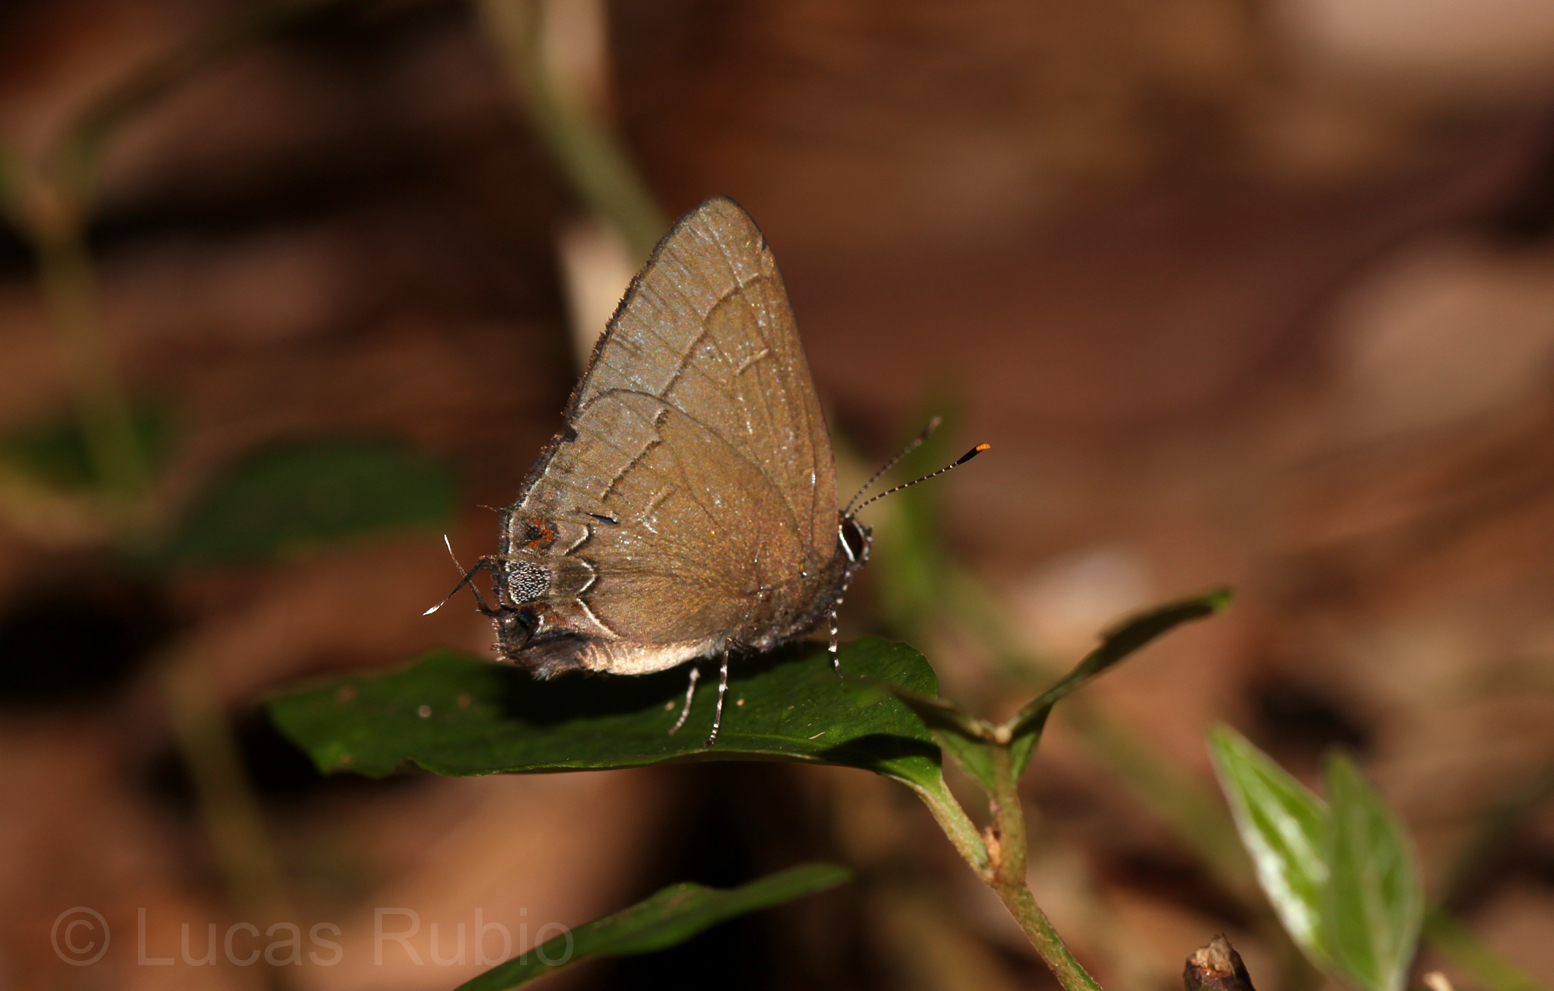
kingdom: Animalia
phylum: Arthropoda
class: Insecta
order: Lepidoptera
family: Lycaenidae
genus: Calycopis
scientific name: Calycopis bellera
